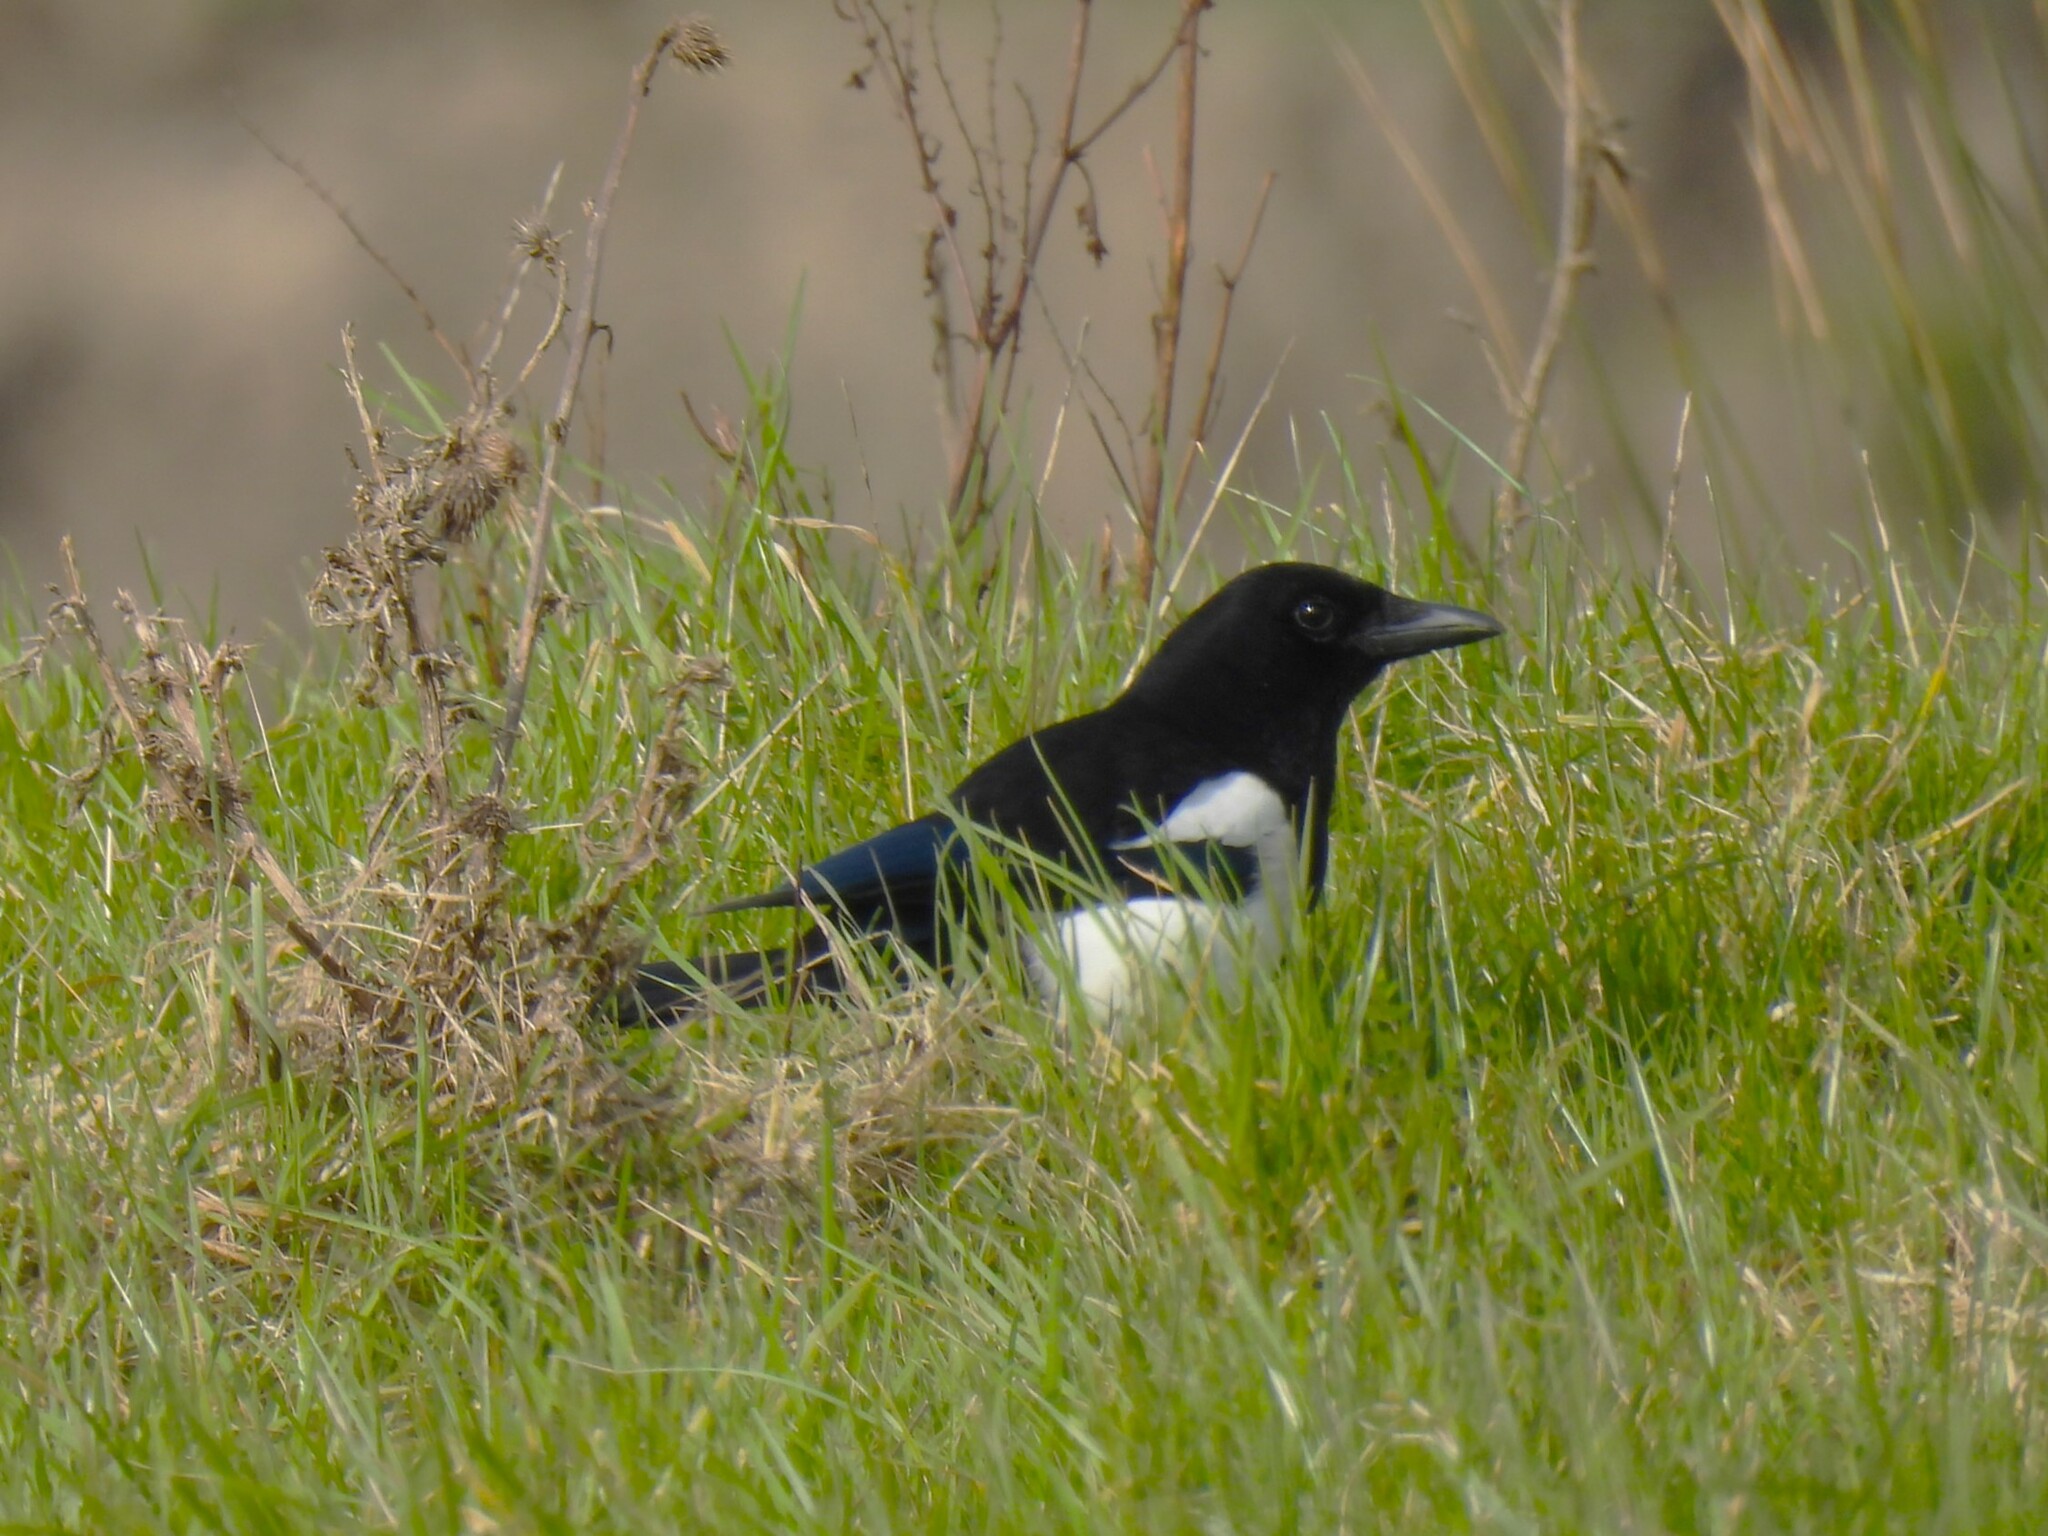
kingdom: Animalia
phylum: Chordata
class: Aves
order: Passeriformes
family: Corvidae
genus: Pica
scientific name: Pica pica
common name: Eurasian magpie
